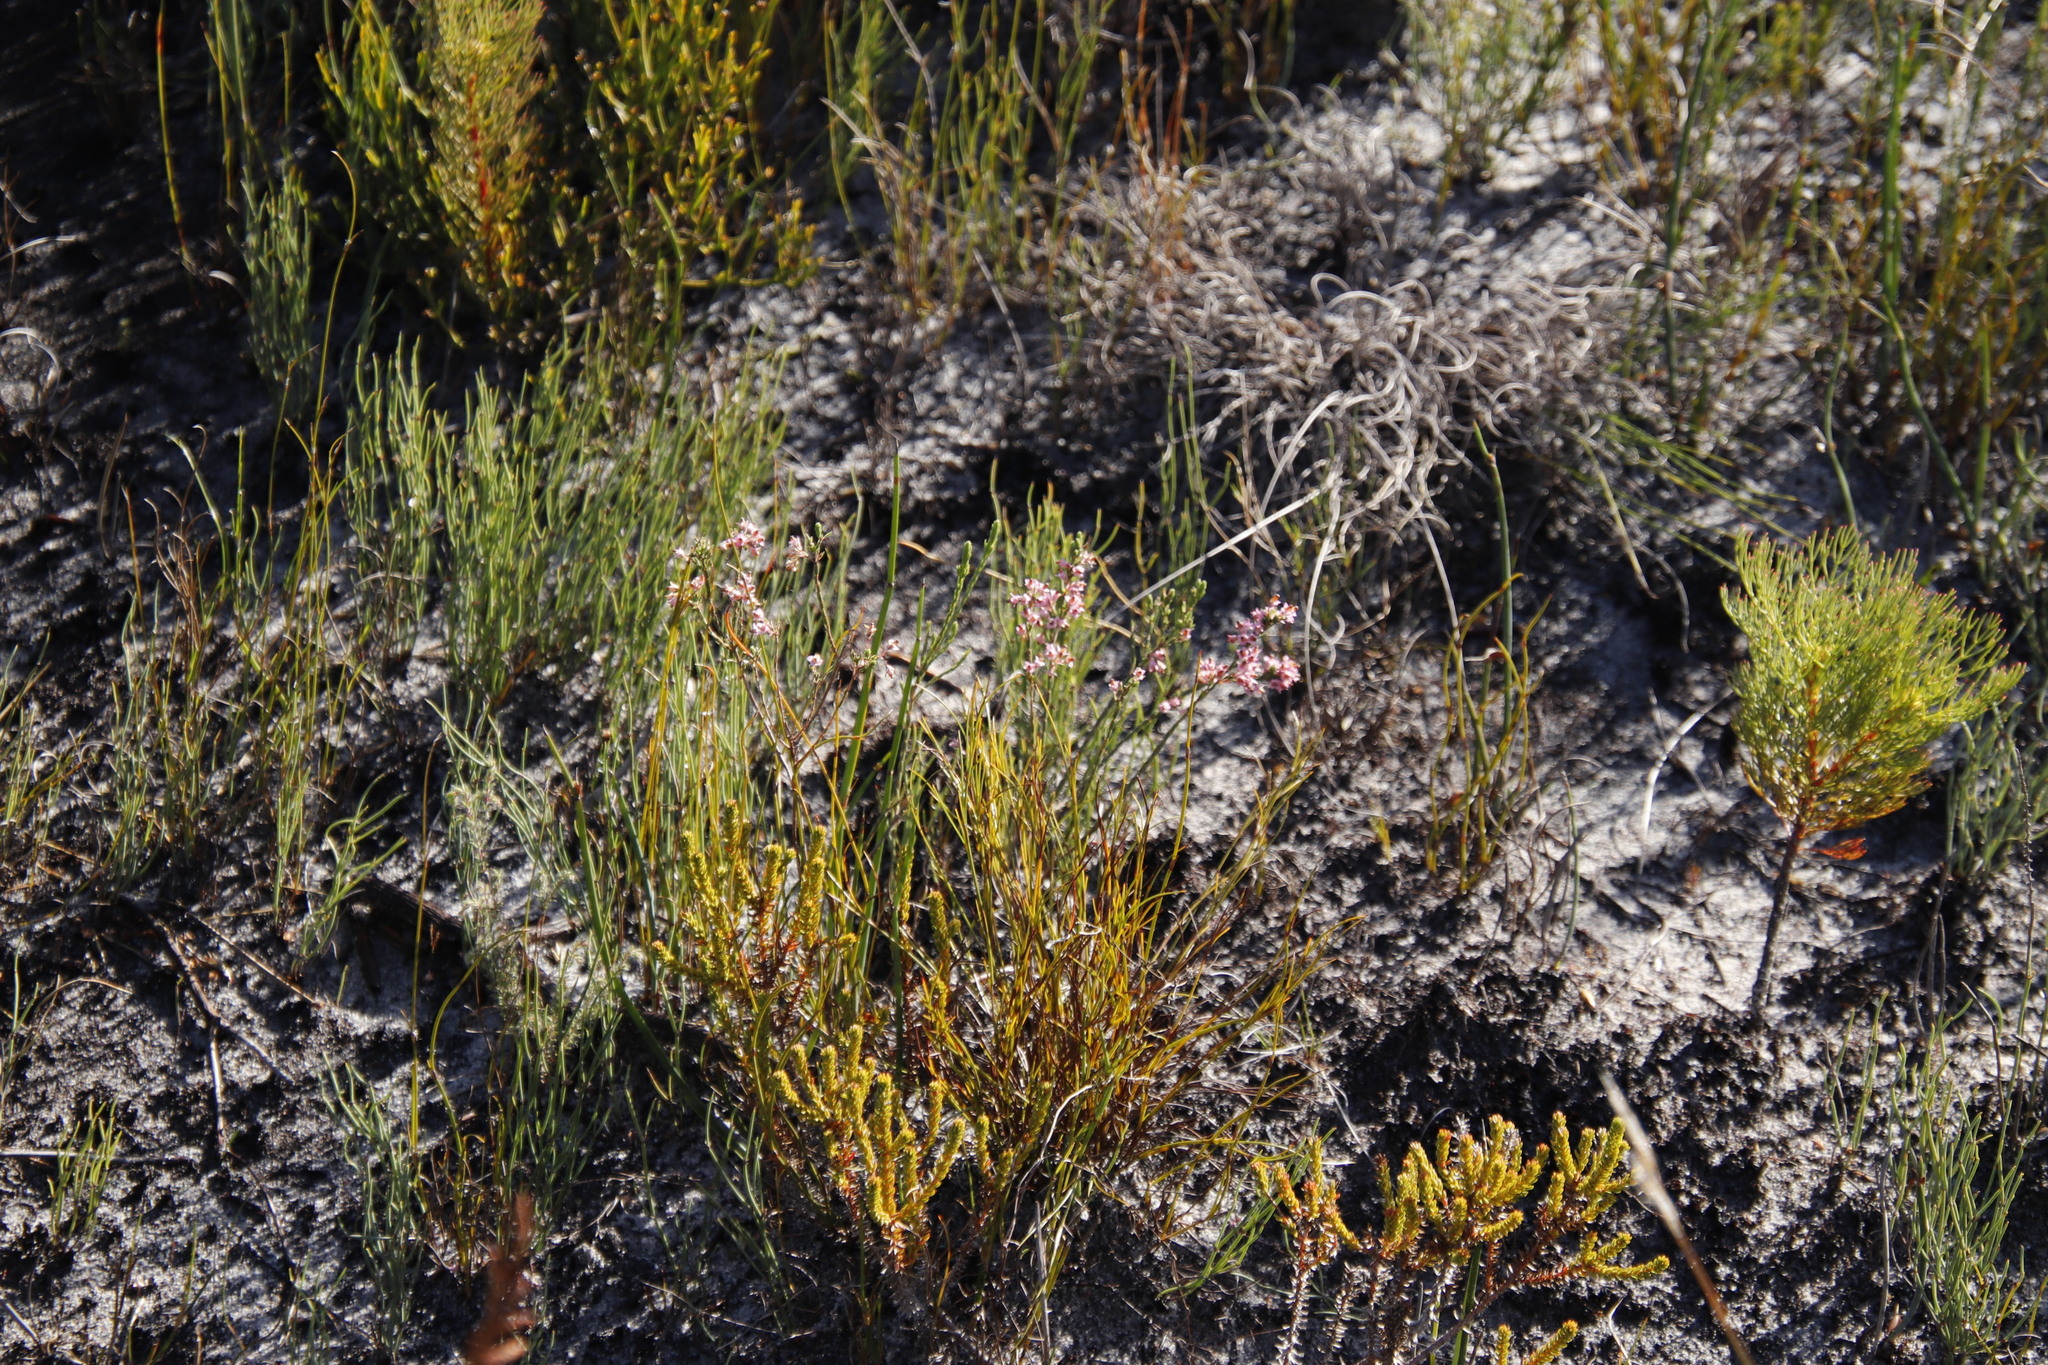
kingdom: Plantae
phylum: Tracheophyta
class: Magnoliopsida
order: Ericales
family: Ericaceae
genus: Erica
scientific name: Erica corifolia
